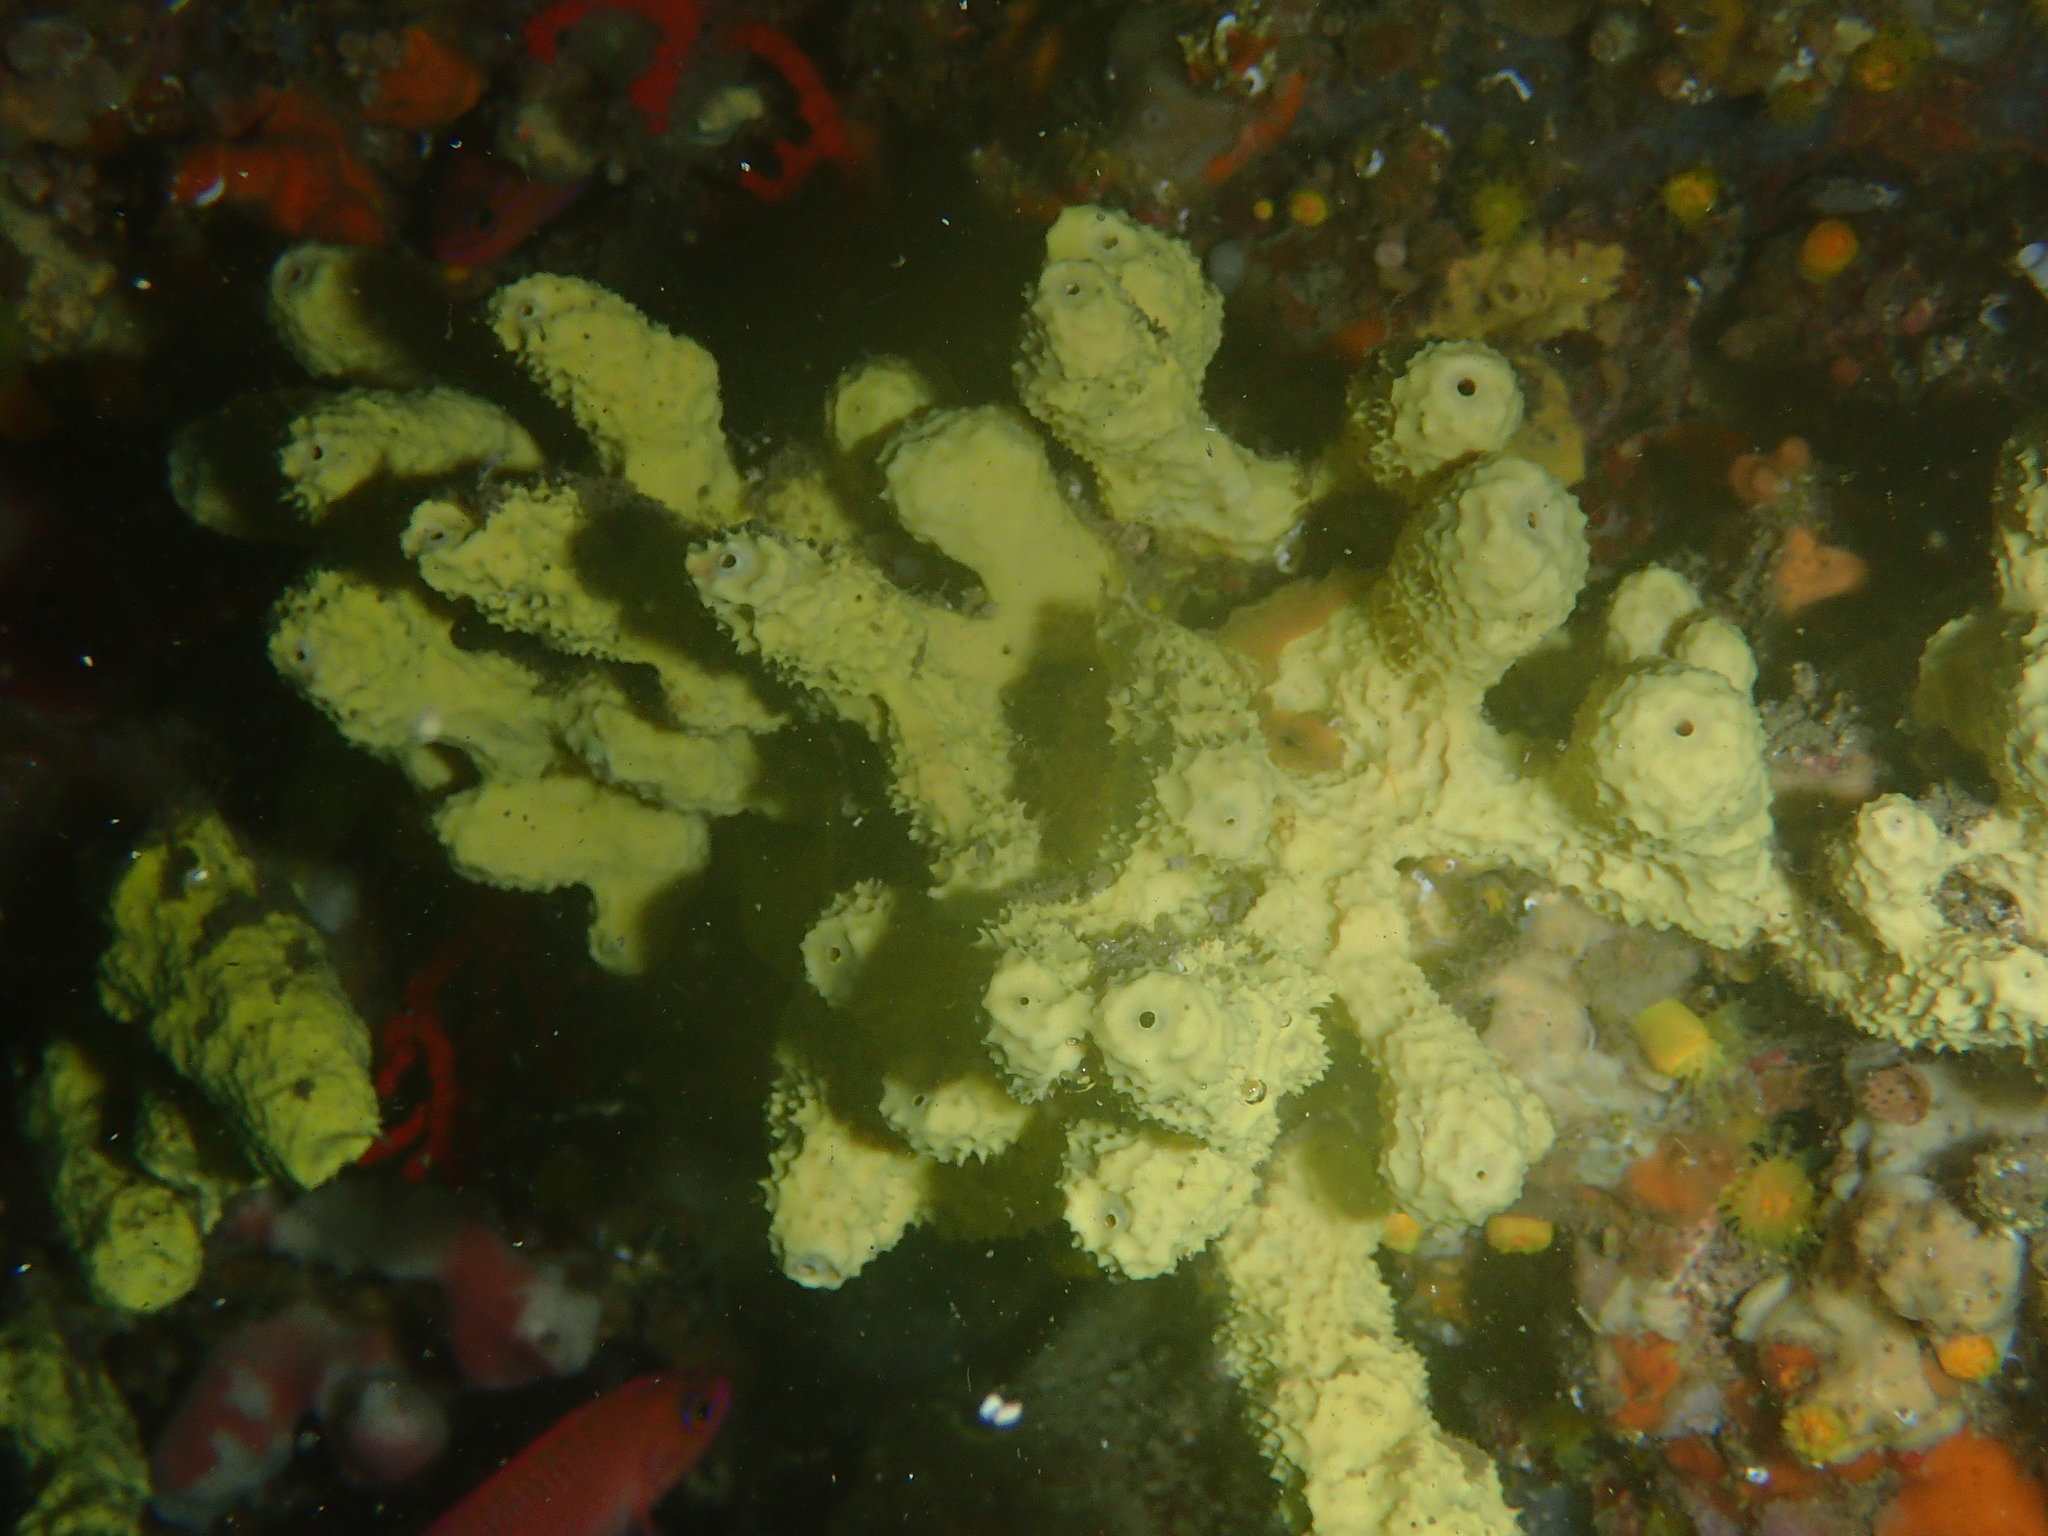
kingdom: Animalia
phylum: Porifera
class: Demospongiae
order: Verongiida
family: Aplysinidae
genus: Aplysina
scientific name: Aplysina cavernicola
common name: Yellow cave-sponge
